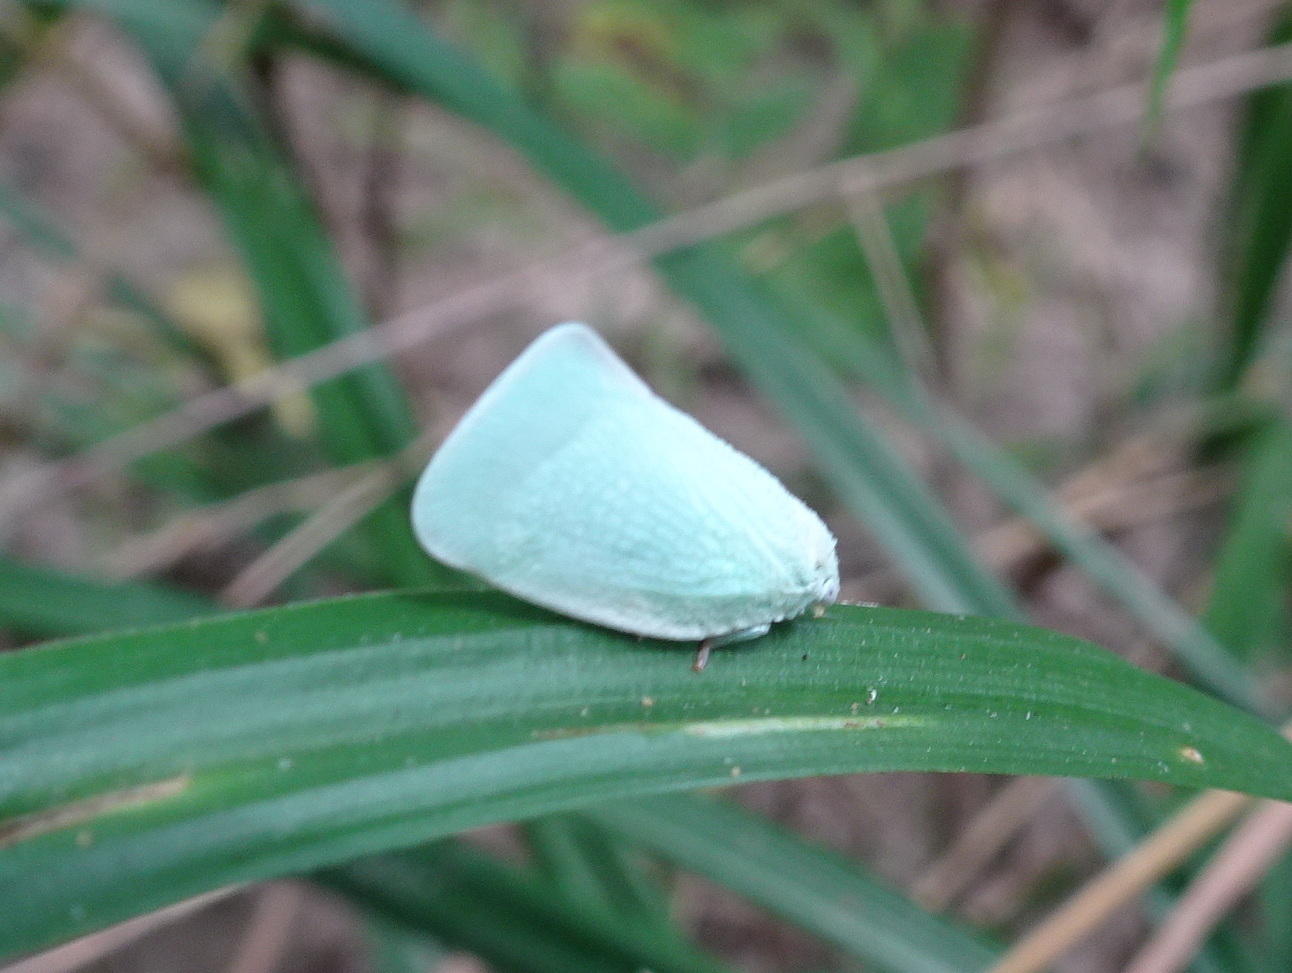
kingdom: Animalia
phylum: Arthropoda
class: Insecta
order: Hemiptera
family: Flatidae
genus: Flatormenis
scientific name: Flatormenis proxima
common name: Northern flatid planthopper
